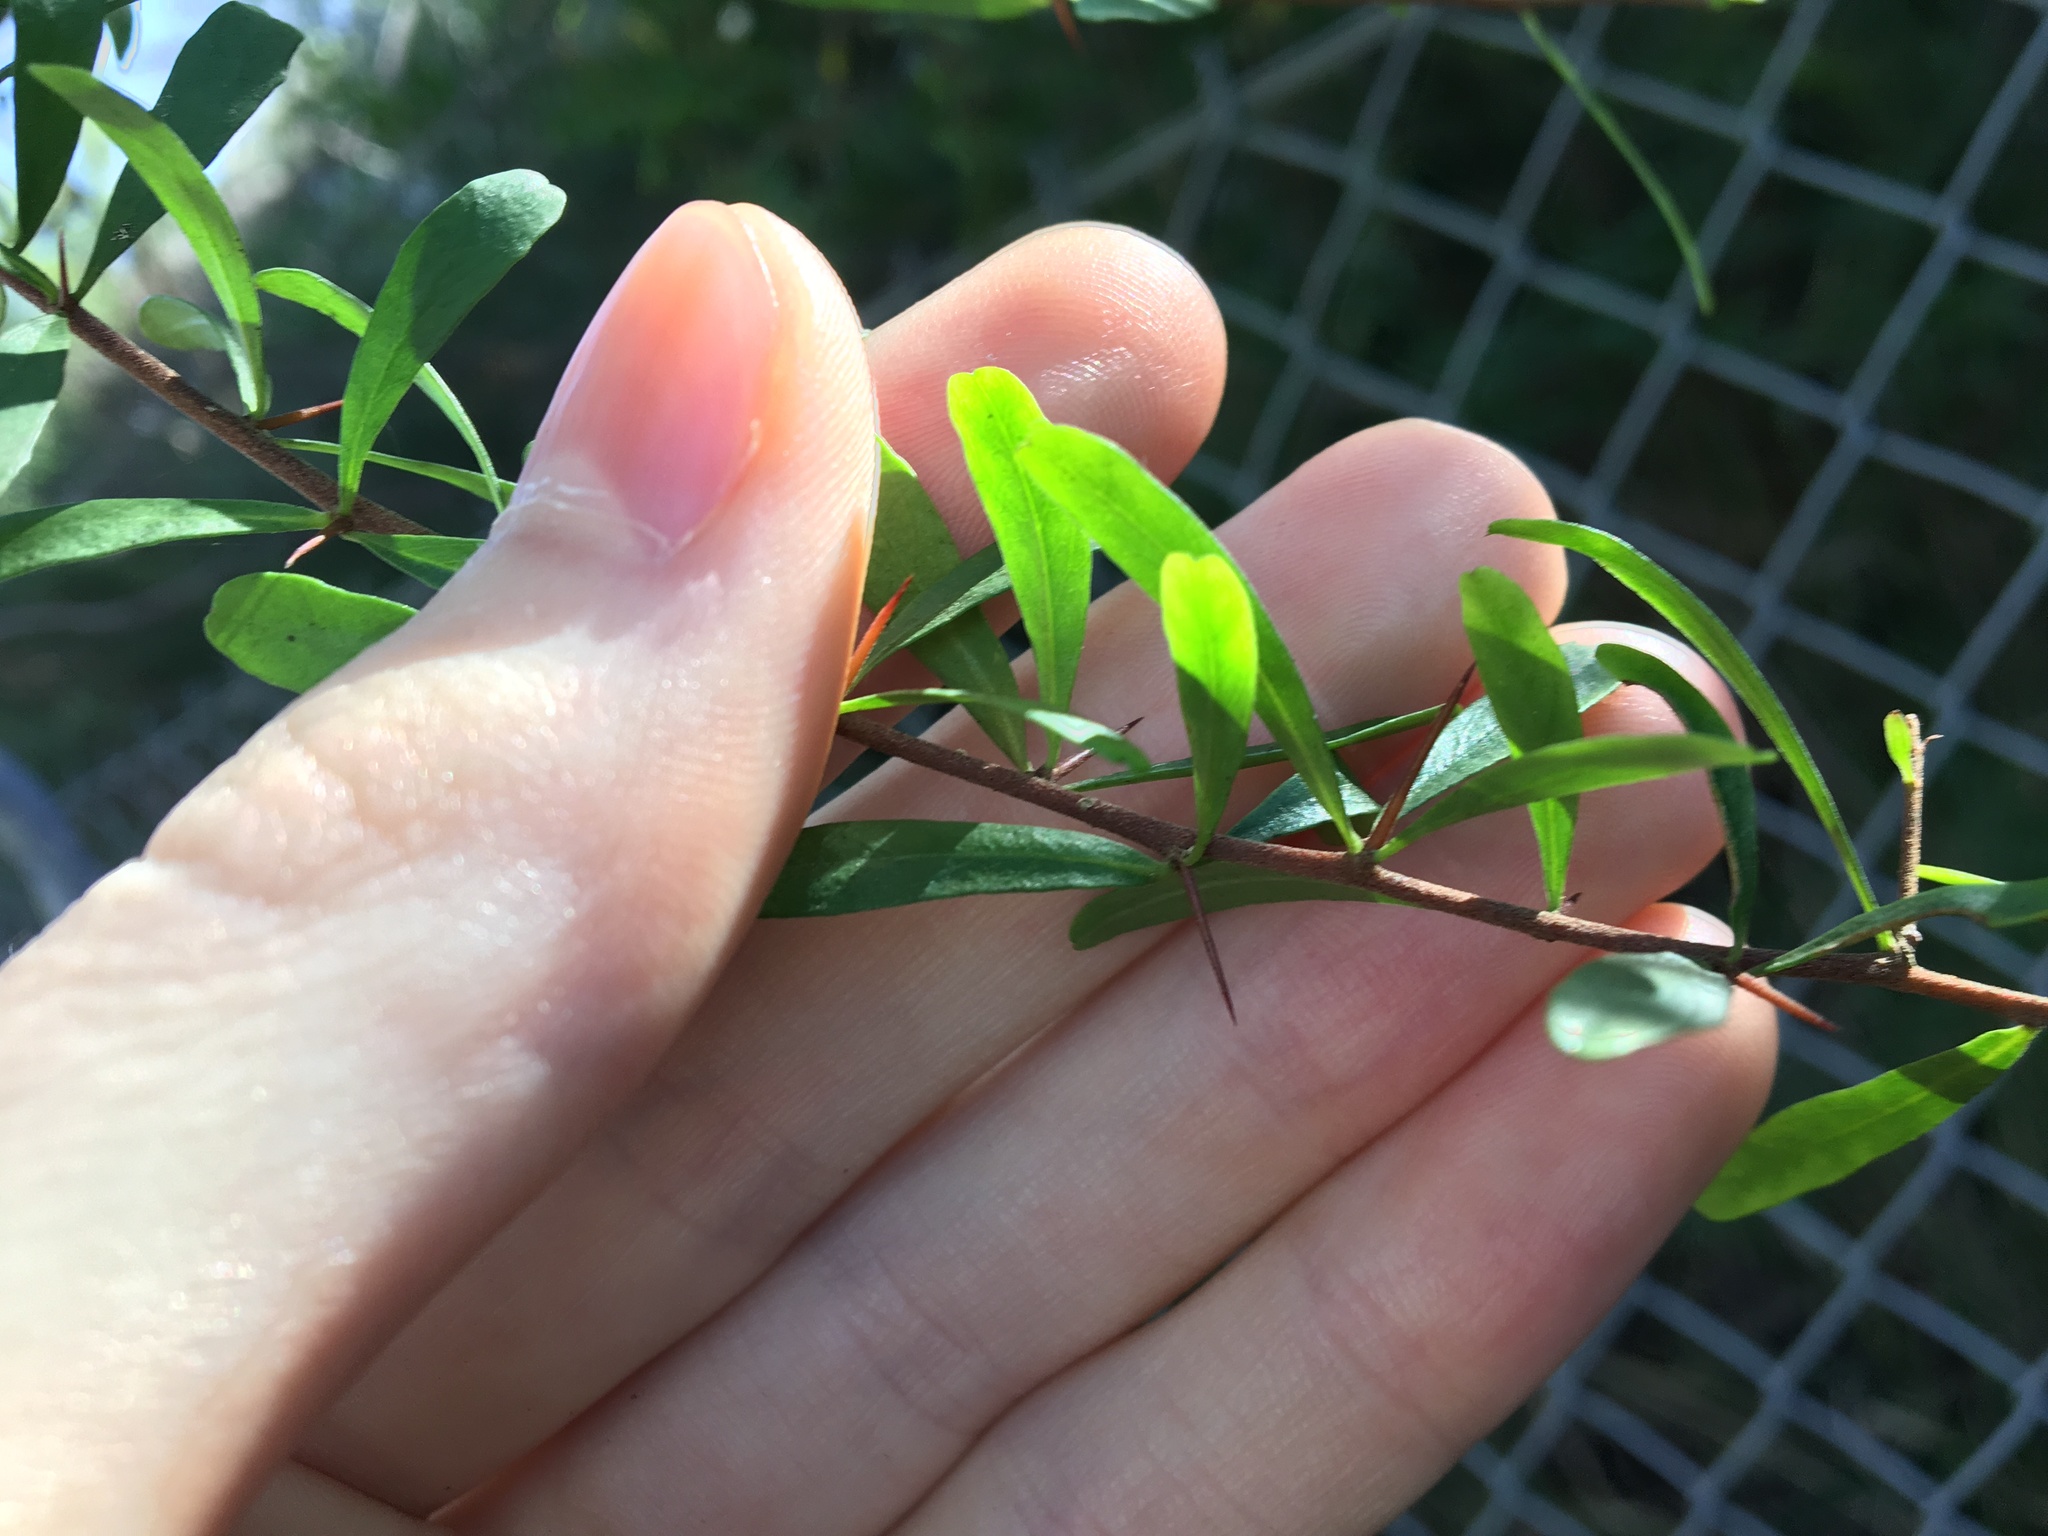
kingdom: Plantae
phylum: Tracheophyta
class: Magnoliopsida
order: Apiales
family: Pittosporaceae
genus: Bursaria
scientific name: Bursaria spinosa
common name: Australian blackthorn
